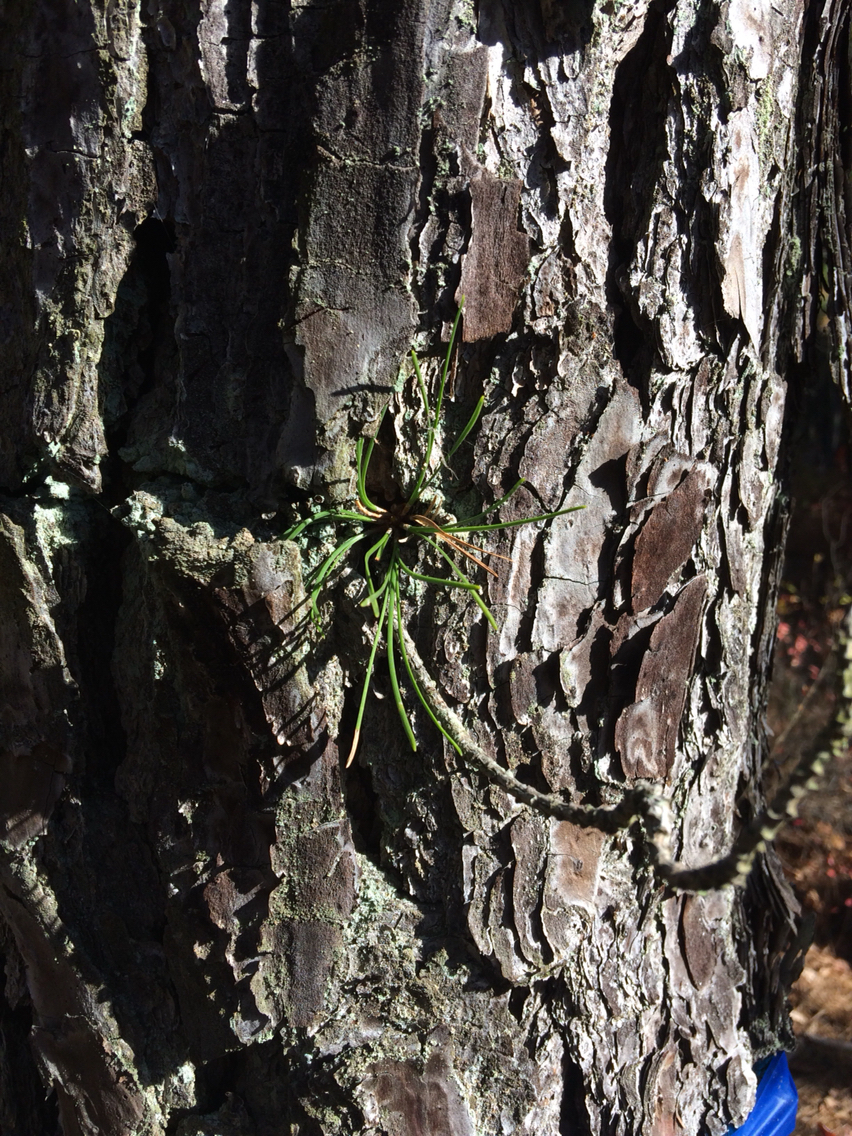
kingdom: Plantae
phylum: Tracheophyta
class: Pinopsida
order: Pinales
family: Pinaceae
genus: Pinus
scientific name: Pinus rigida
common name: Pitch pine
